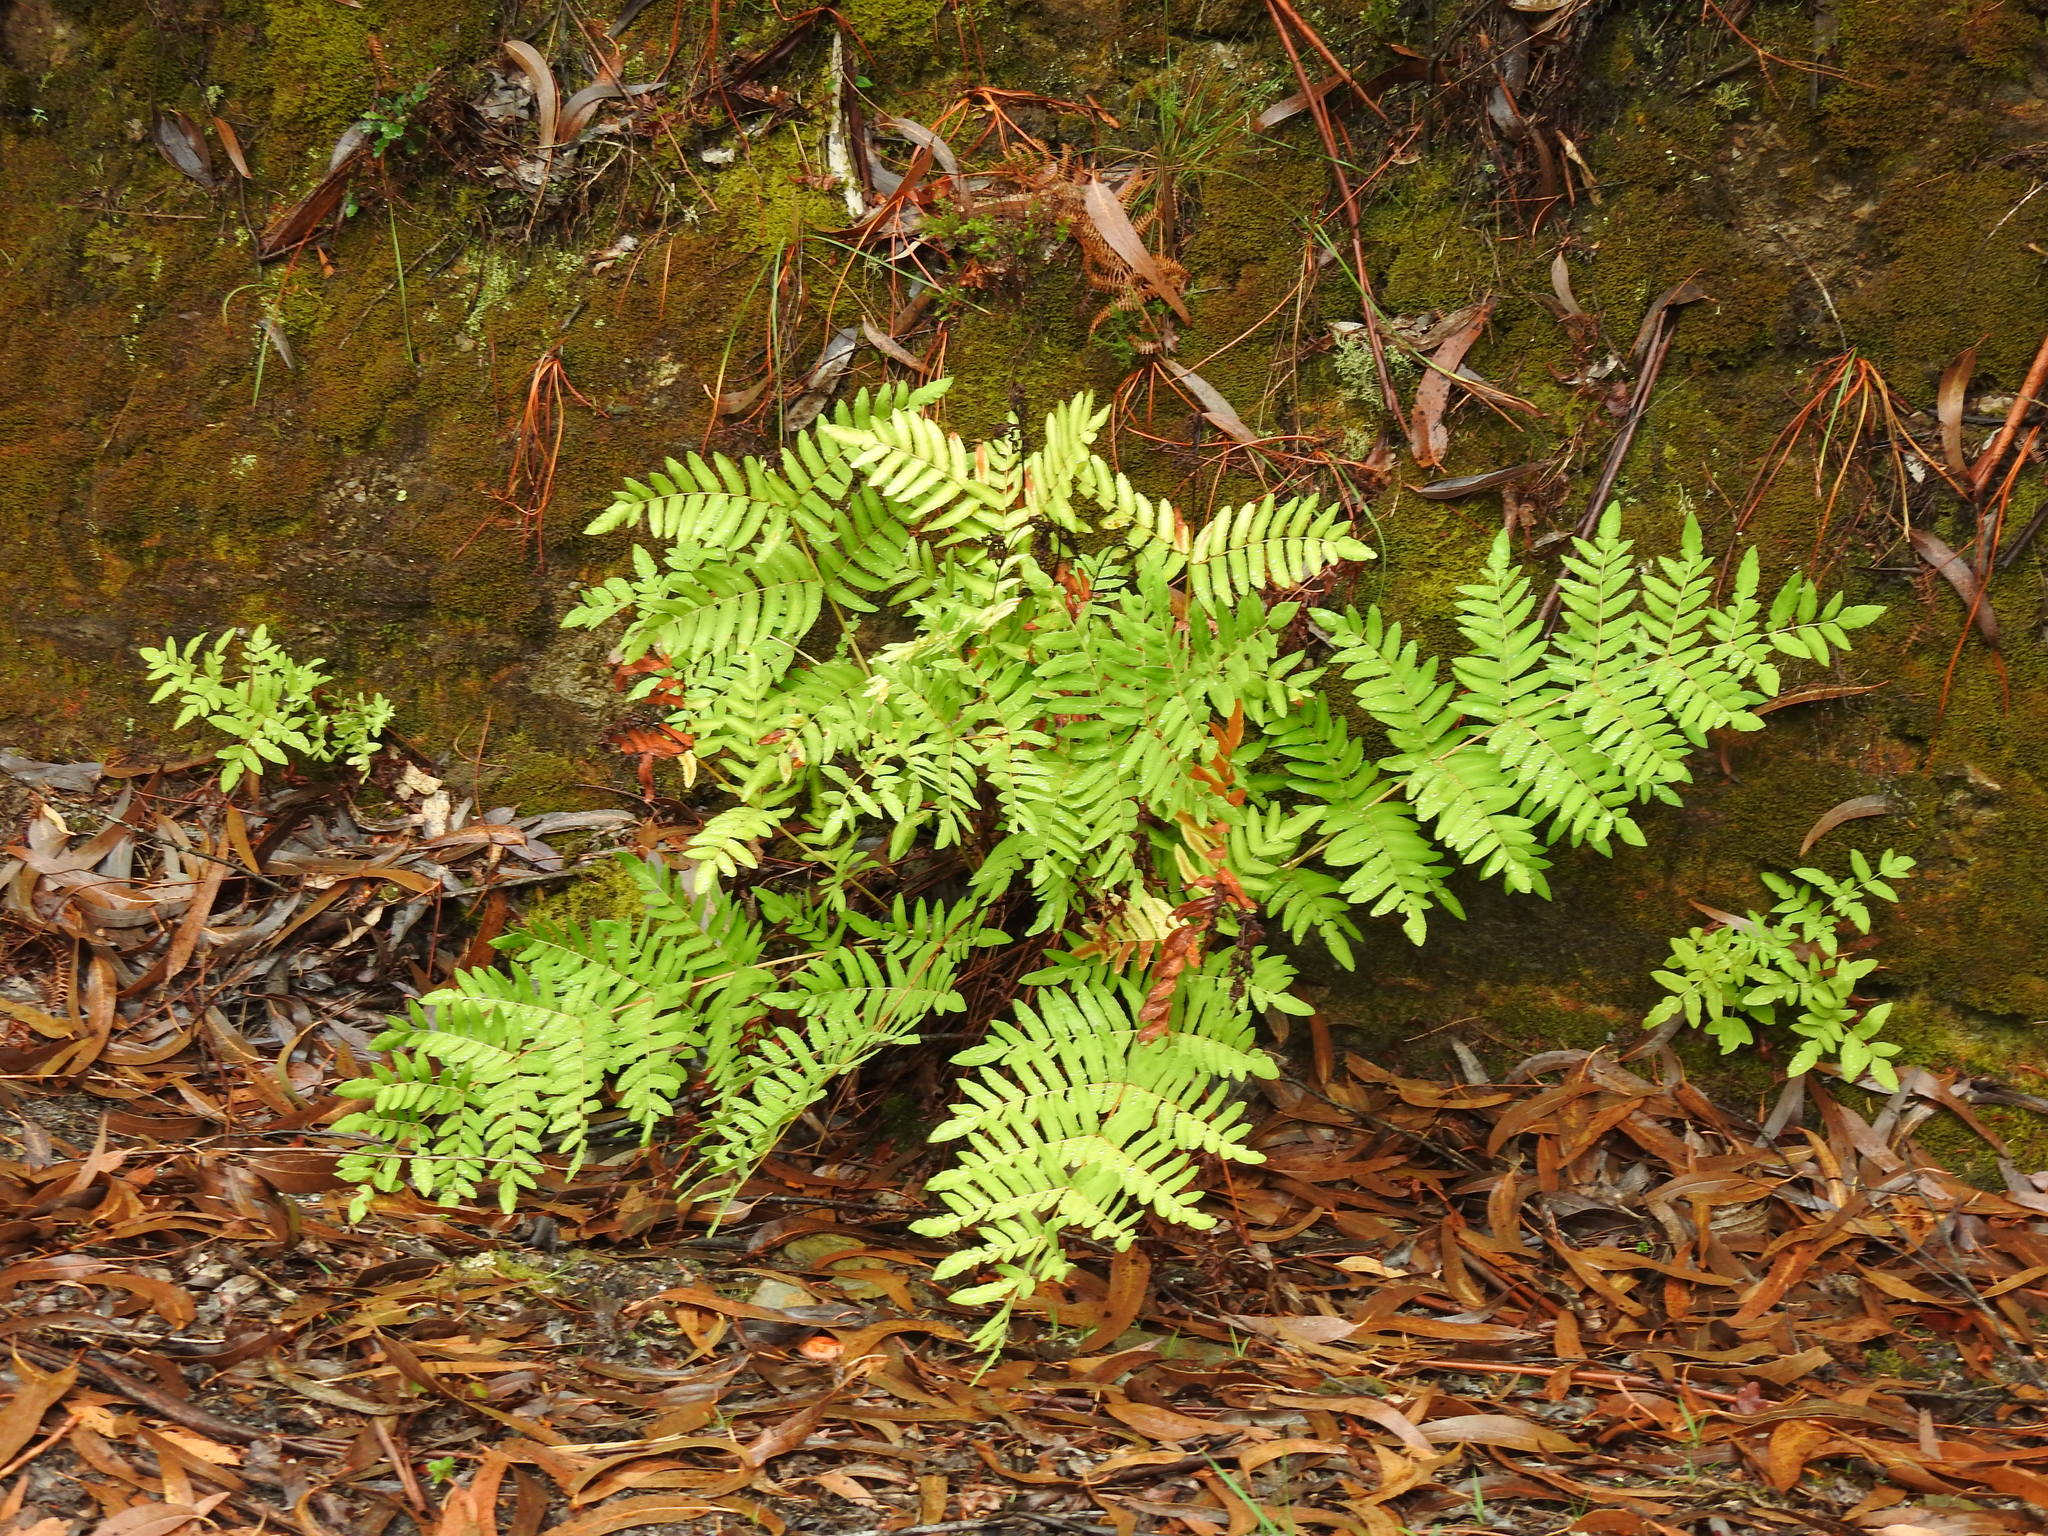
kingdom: Plantae
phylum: Tracheophyta
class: Polypodiopsida
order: Osmundales
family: Osmundaceae
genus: Osmunda
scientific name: Osmunda regalis
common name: Royal fern
